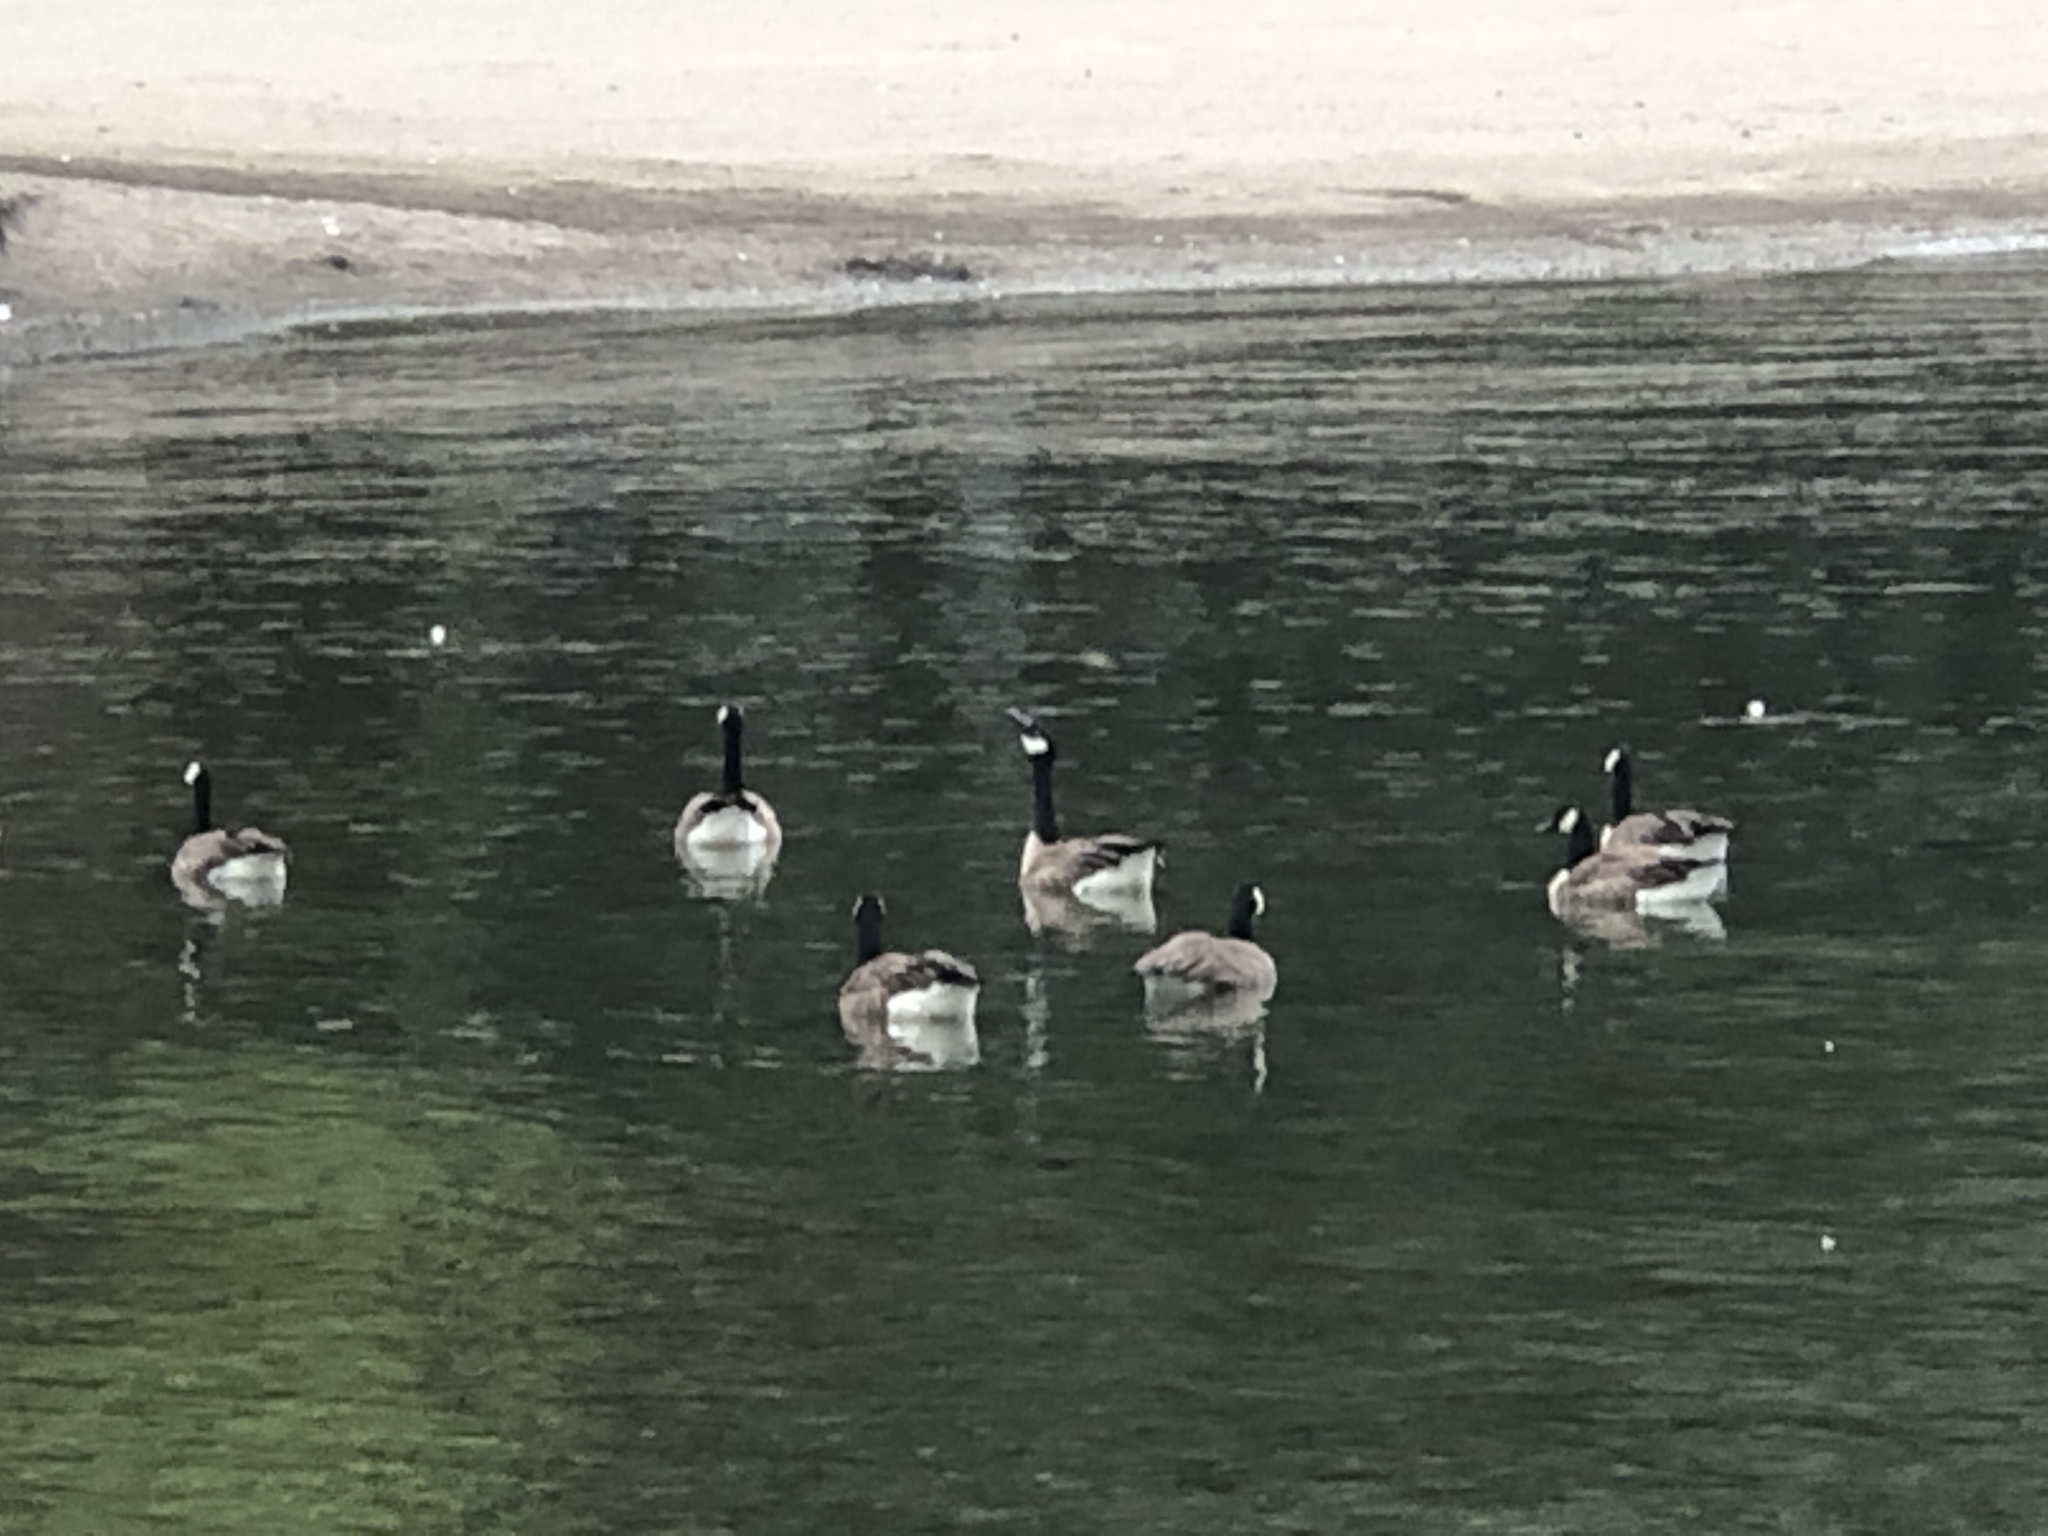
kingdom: Animalia
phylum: Chordata
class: Aves
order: Anseriformes
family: Anatidae
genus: Branta
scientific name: Branta canadensis
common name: Canada goose
